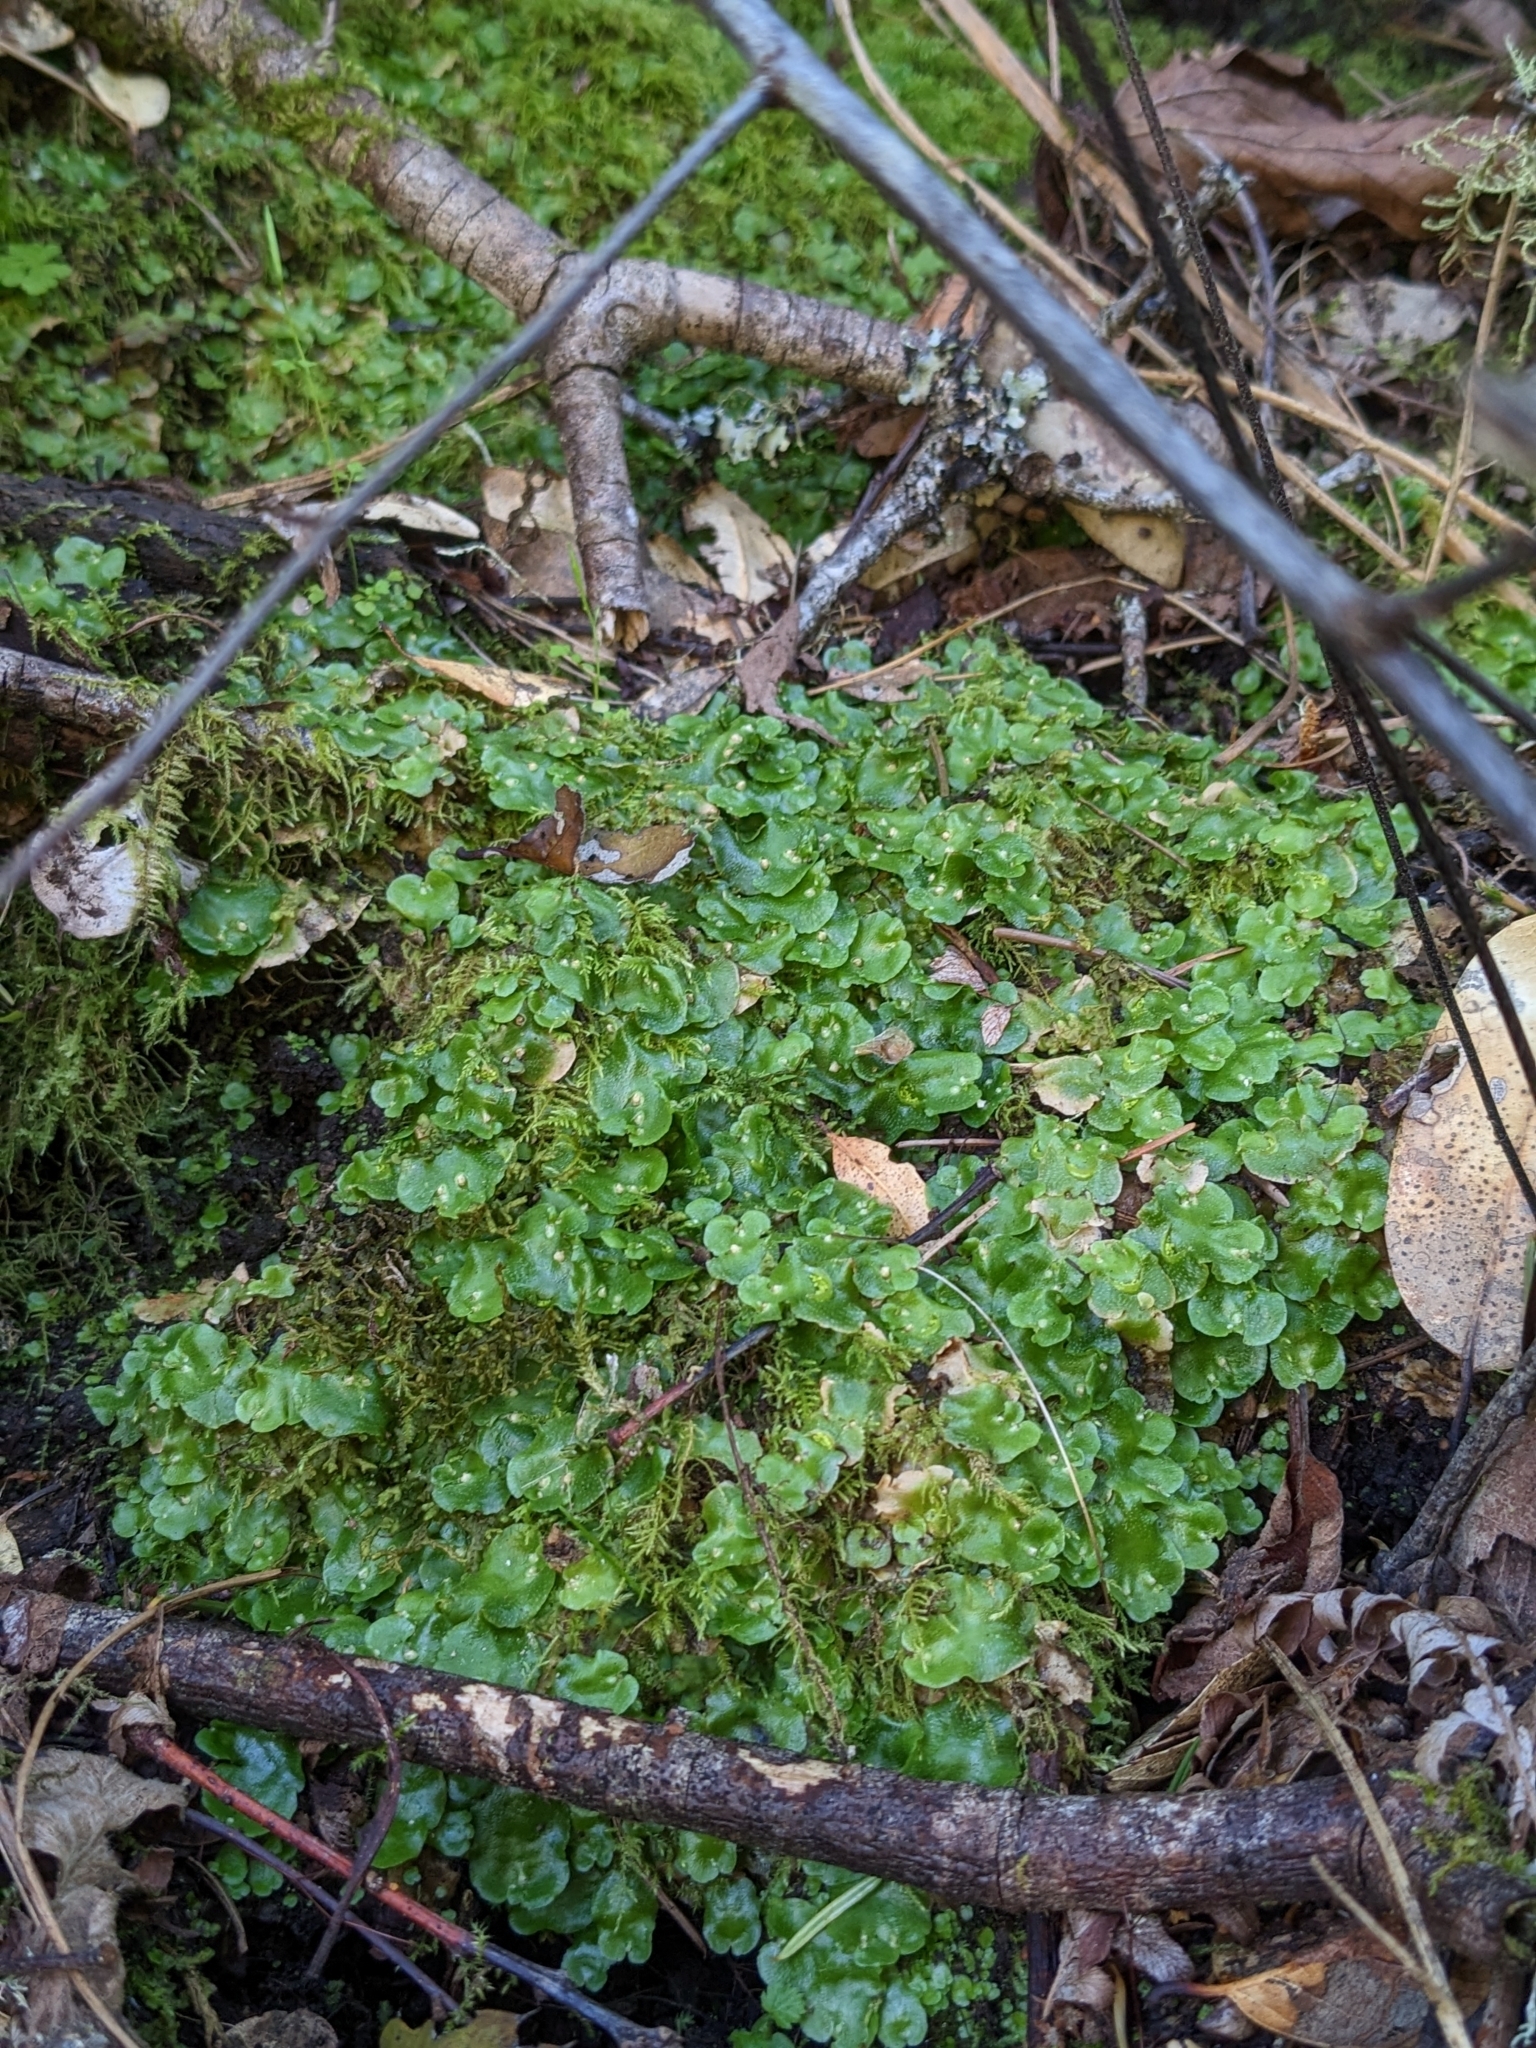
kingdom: Plantae
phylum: Marchantiophyta
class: Marchantiopsida
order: Lunulariales
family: Lunulariaceae
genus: Lunularia
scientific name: Lunularia cruciata
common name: Crescent-cup liverwort
